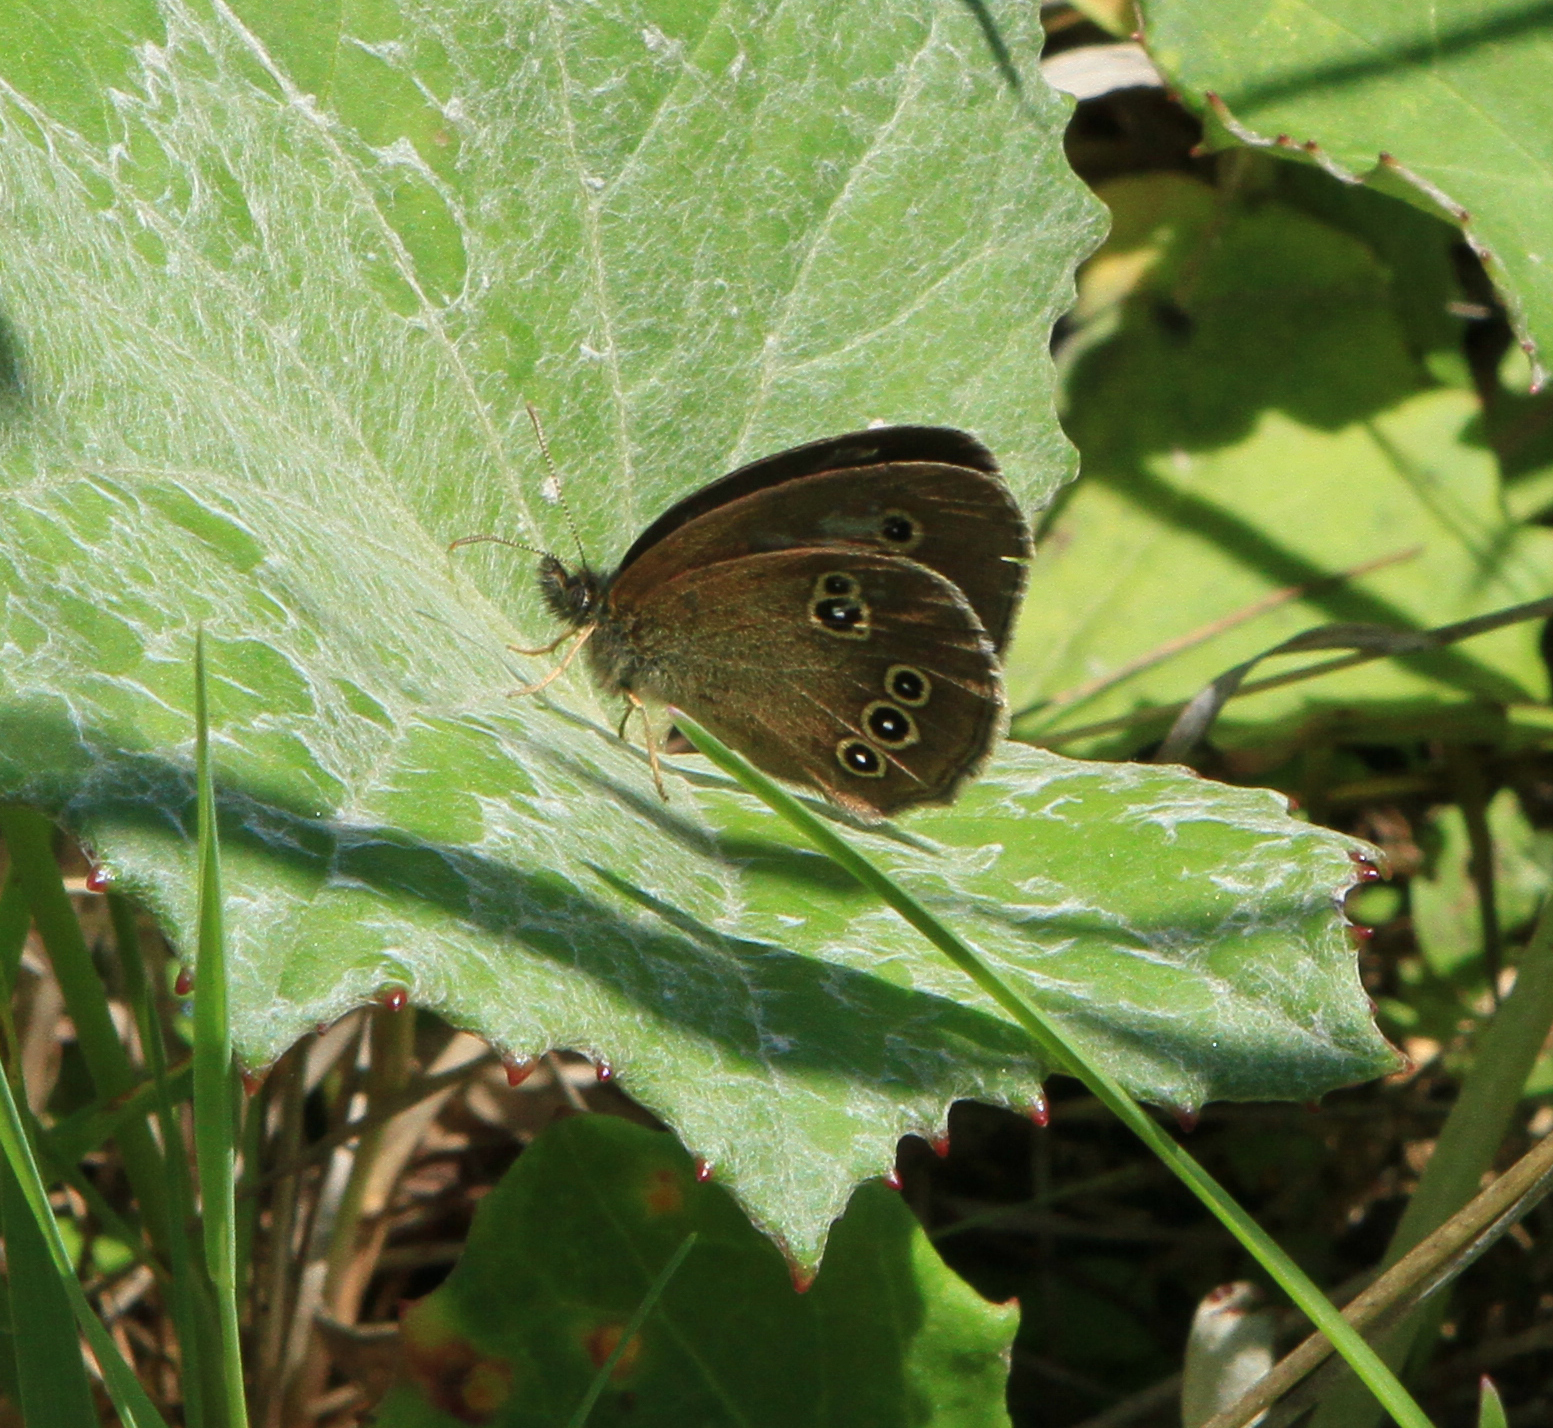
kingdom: Animalia
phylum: Arthropoda
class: Insecta
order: Lepidoptera
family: Nymphalidae
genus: Aphantopus
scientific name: Aphantopus hyperantus
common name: Ringlet
